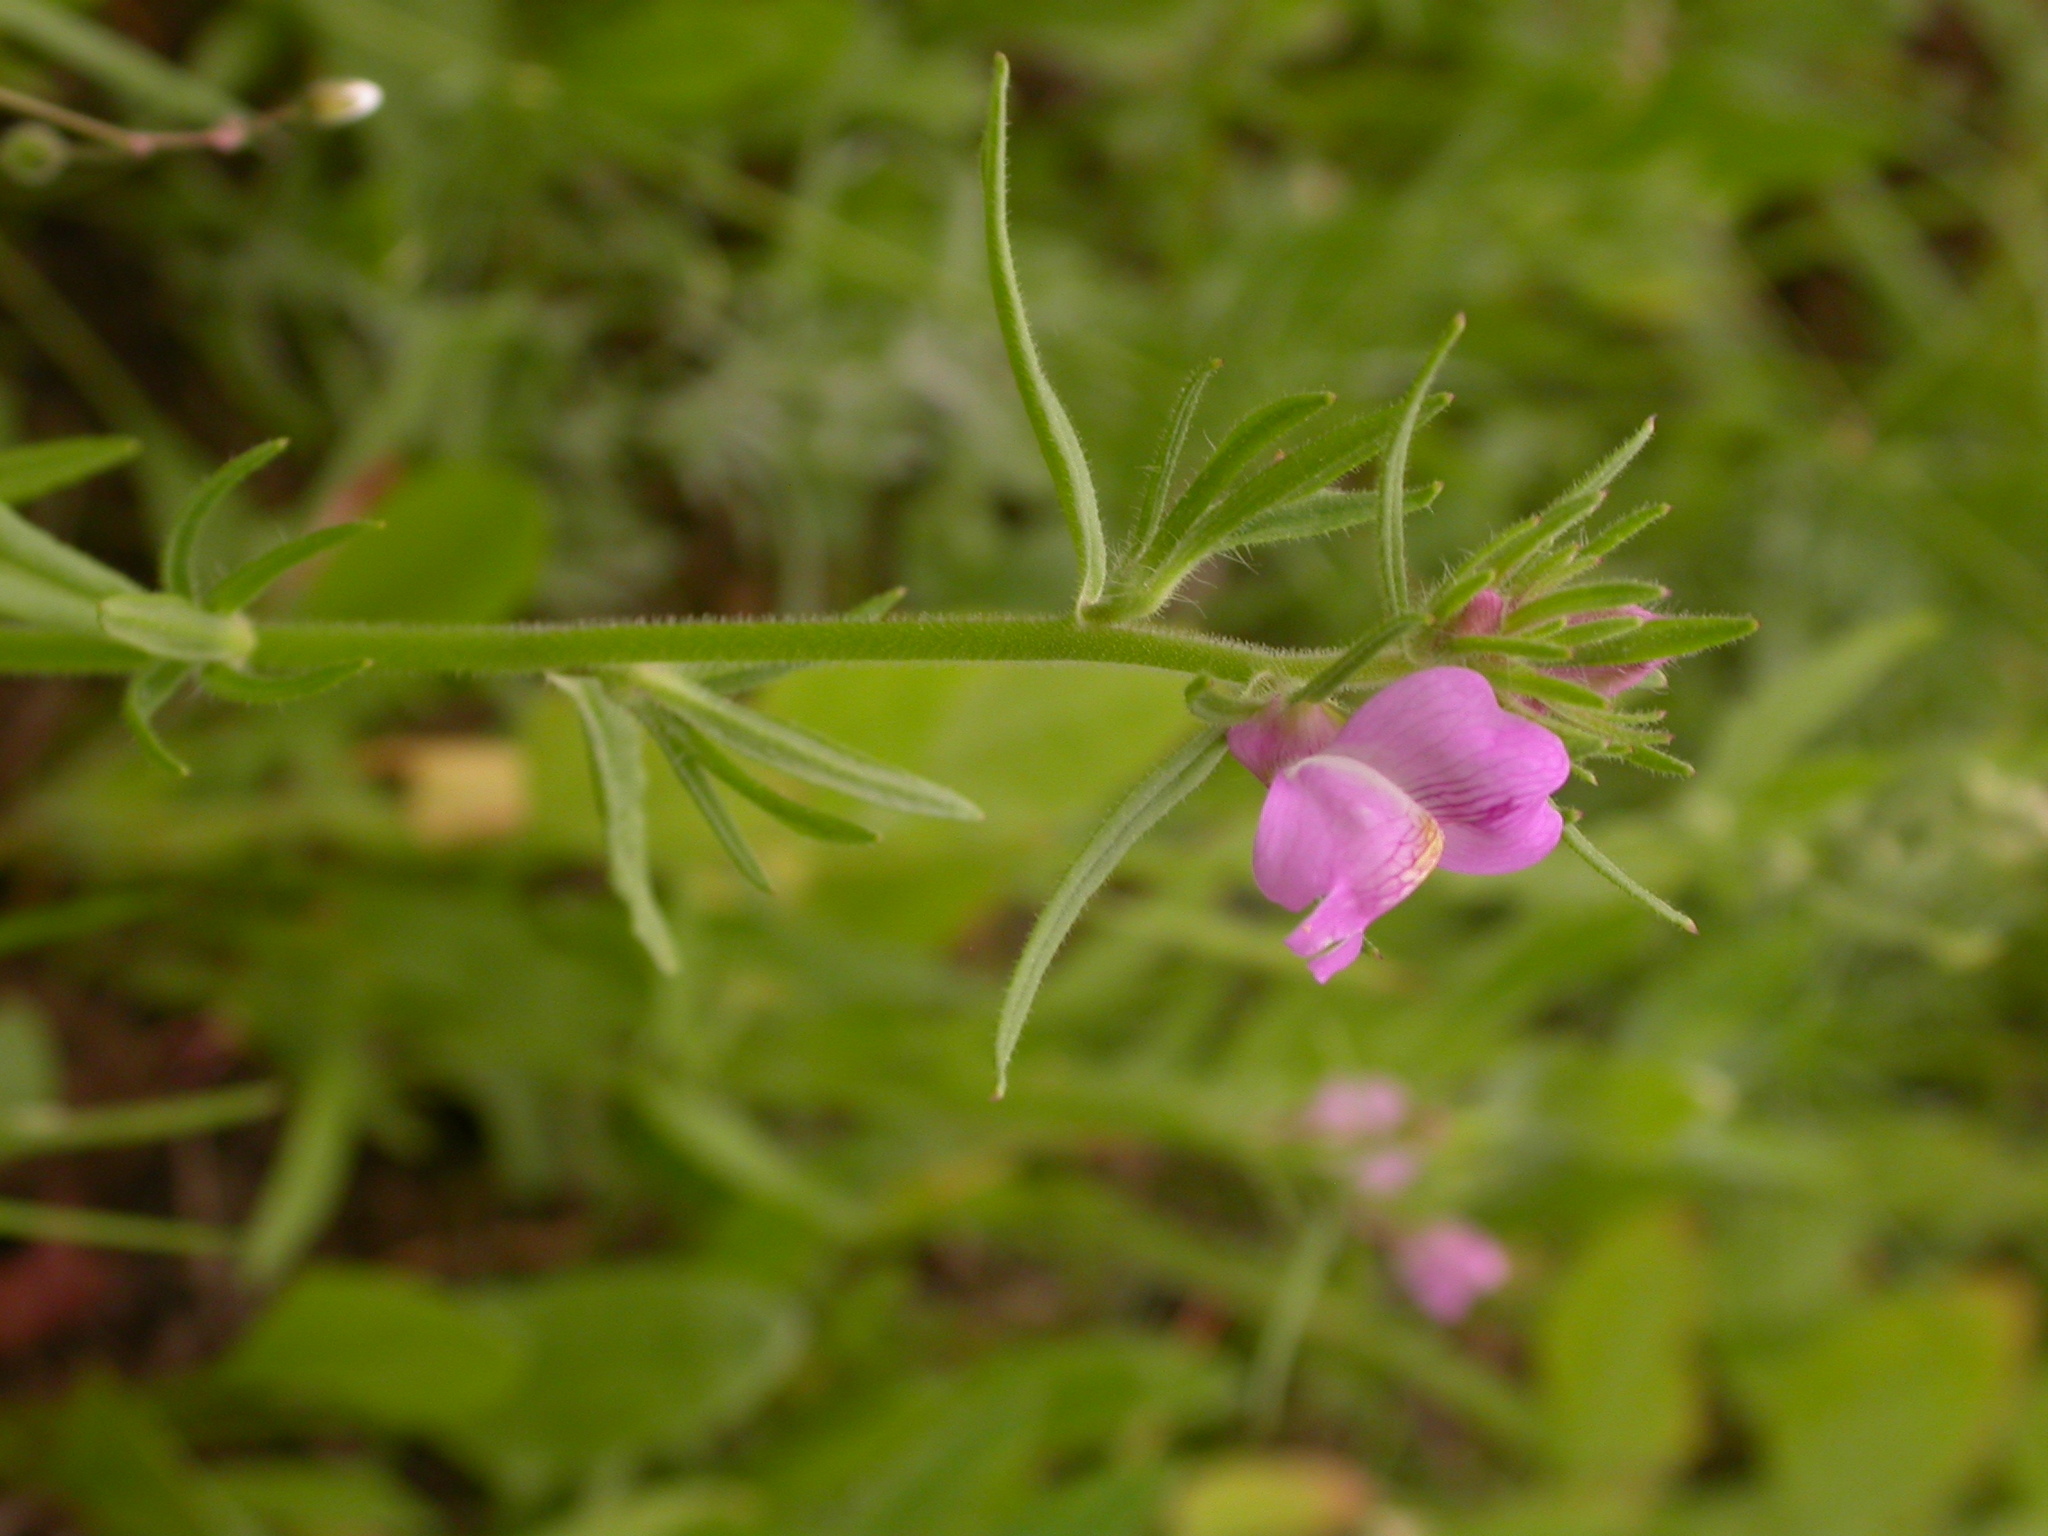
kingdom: Plantae
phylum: Tracheophyta
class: Magnoliopsida
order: Lamiales
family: Plantaginaceae
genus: Misopates
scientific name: Misopates orontium
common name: Weasel's-snout
